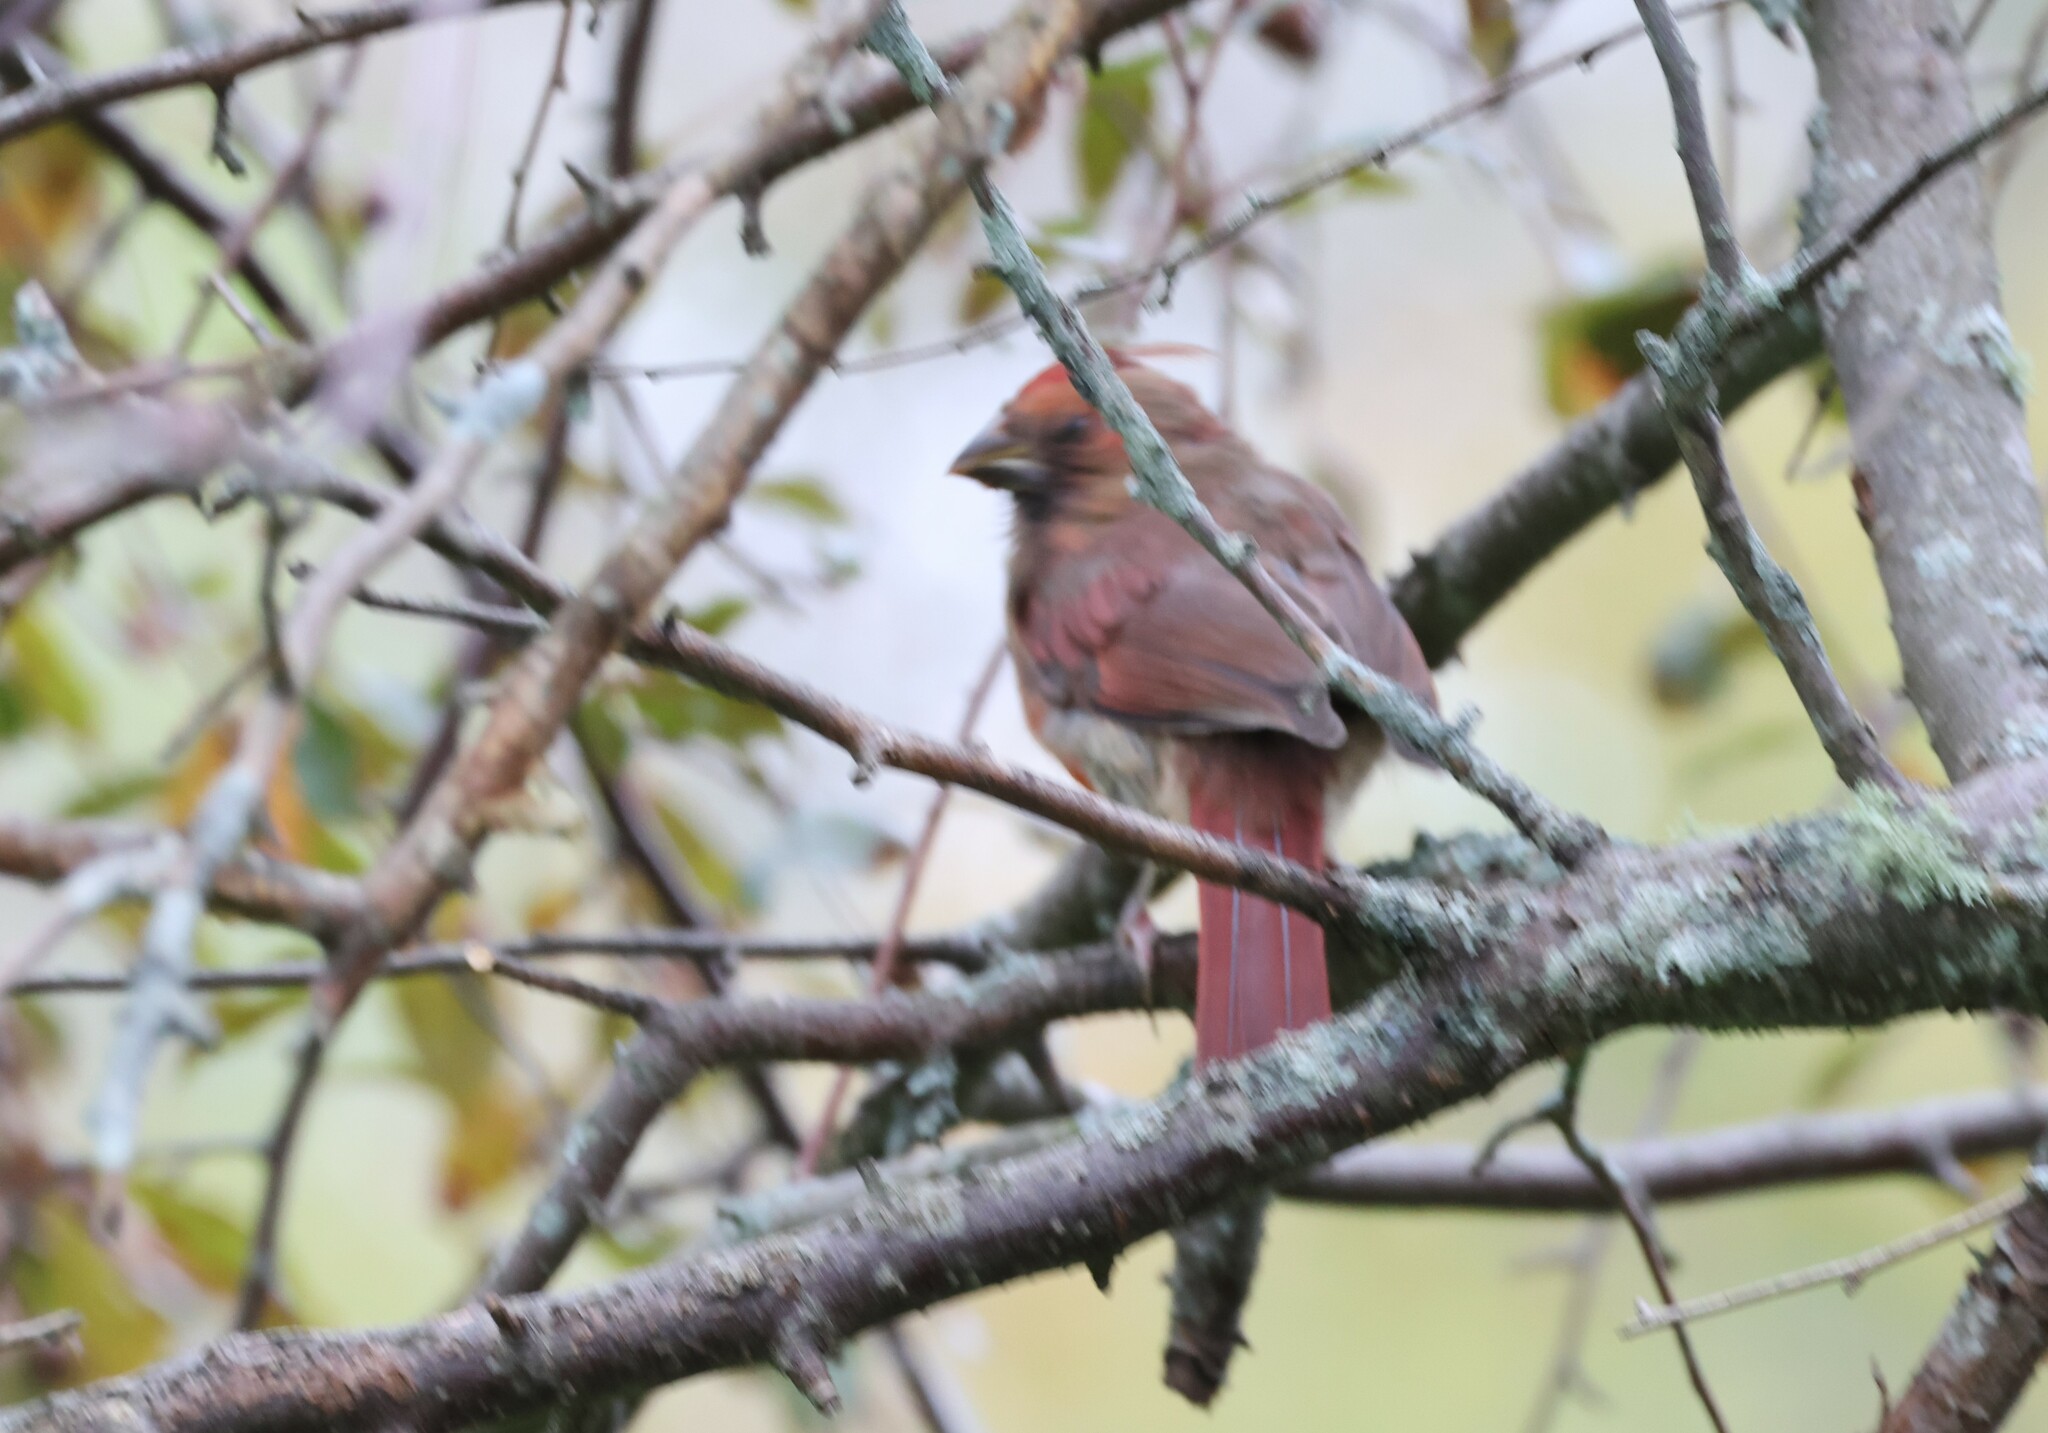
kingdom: Animalia
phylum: Chordata
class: Aves
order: Passeriformes
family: Cardinalidae
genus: Cardinalis
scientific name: Cardinalis cardinalis
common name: Northern cardinal
